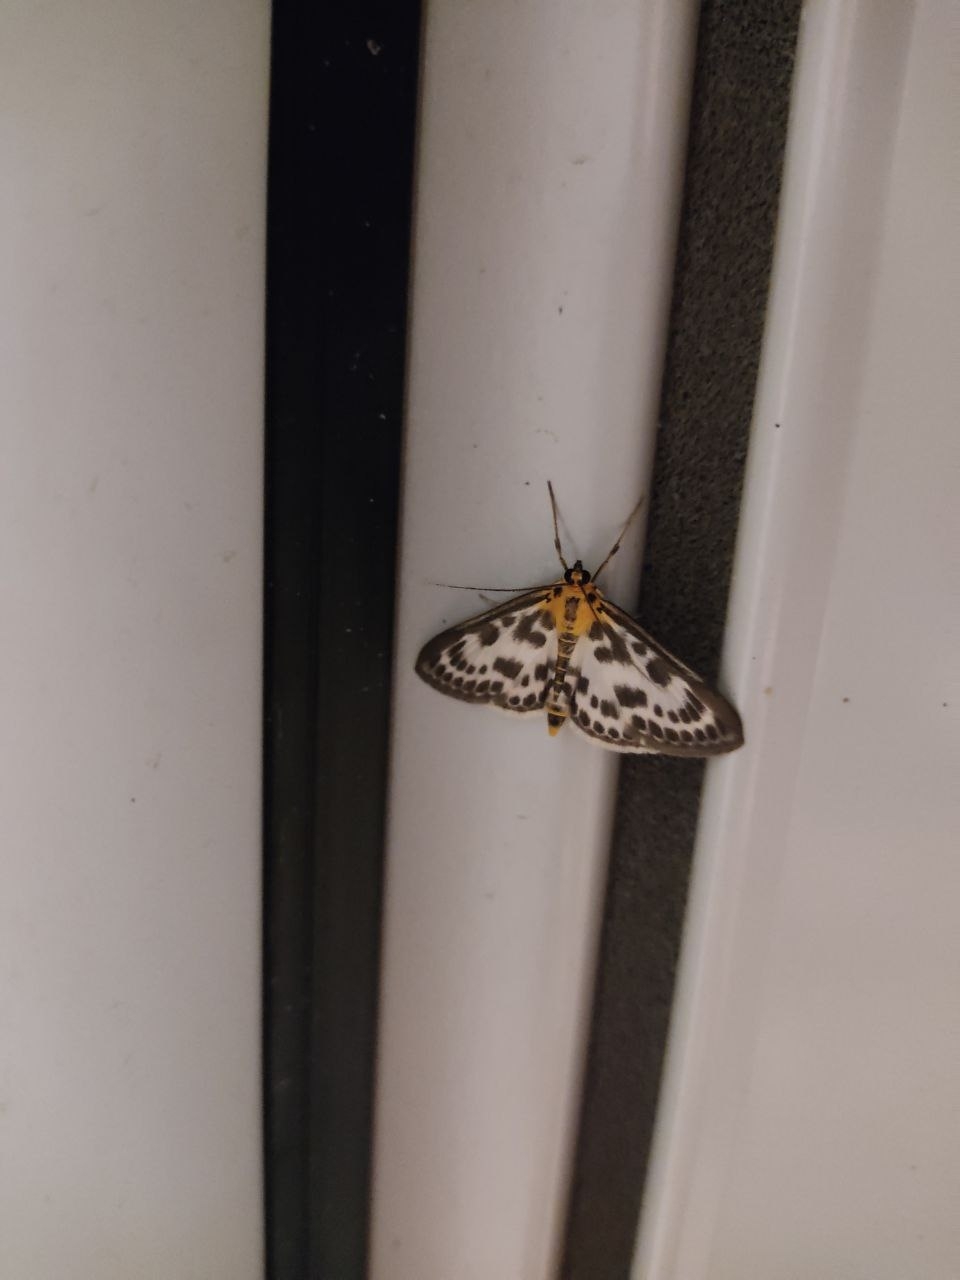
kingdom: Animalia
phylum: Arthropoda
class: Insecta
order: Lepidoptera
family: Crambidae
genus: Anania
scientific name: Anania hortulata
